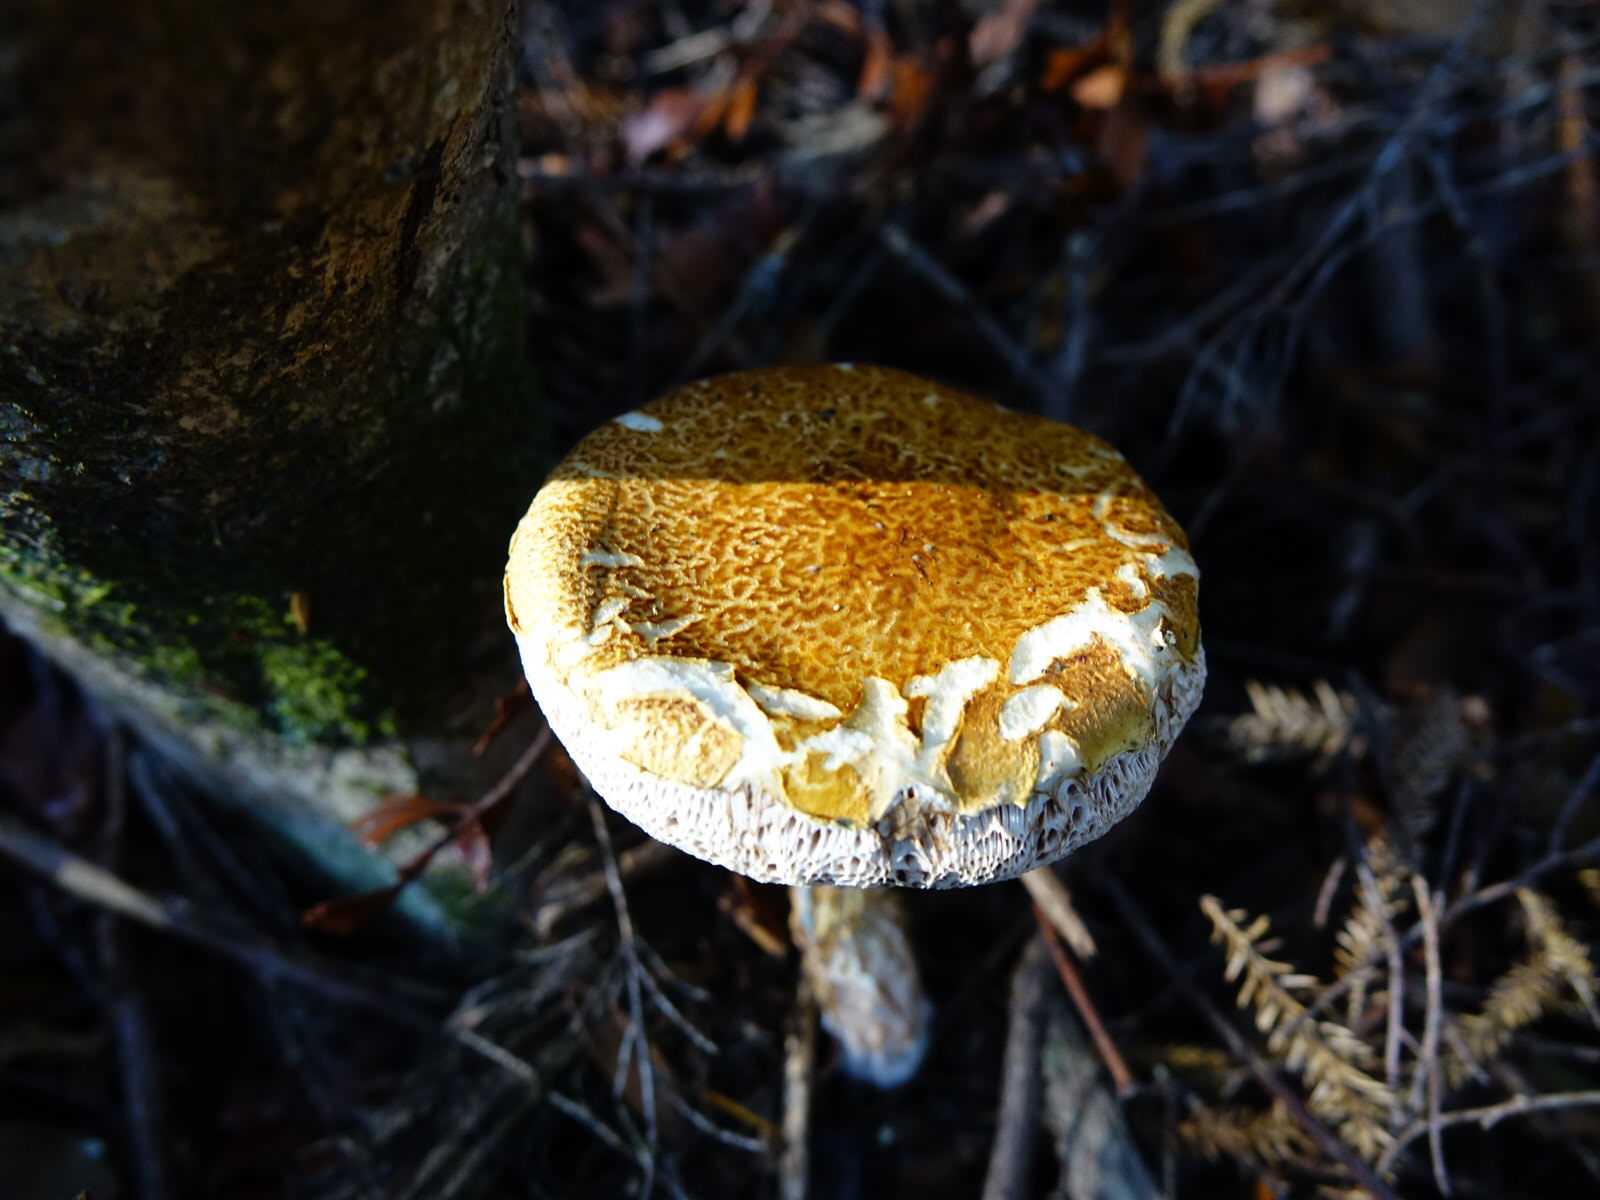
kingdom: Fungi
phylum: Basidiomycota
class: Agaricomycetes
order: Boletales
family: Boletaceae
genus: Austroboletus
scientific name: Austroboletus lacunosus
